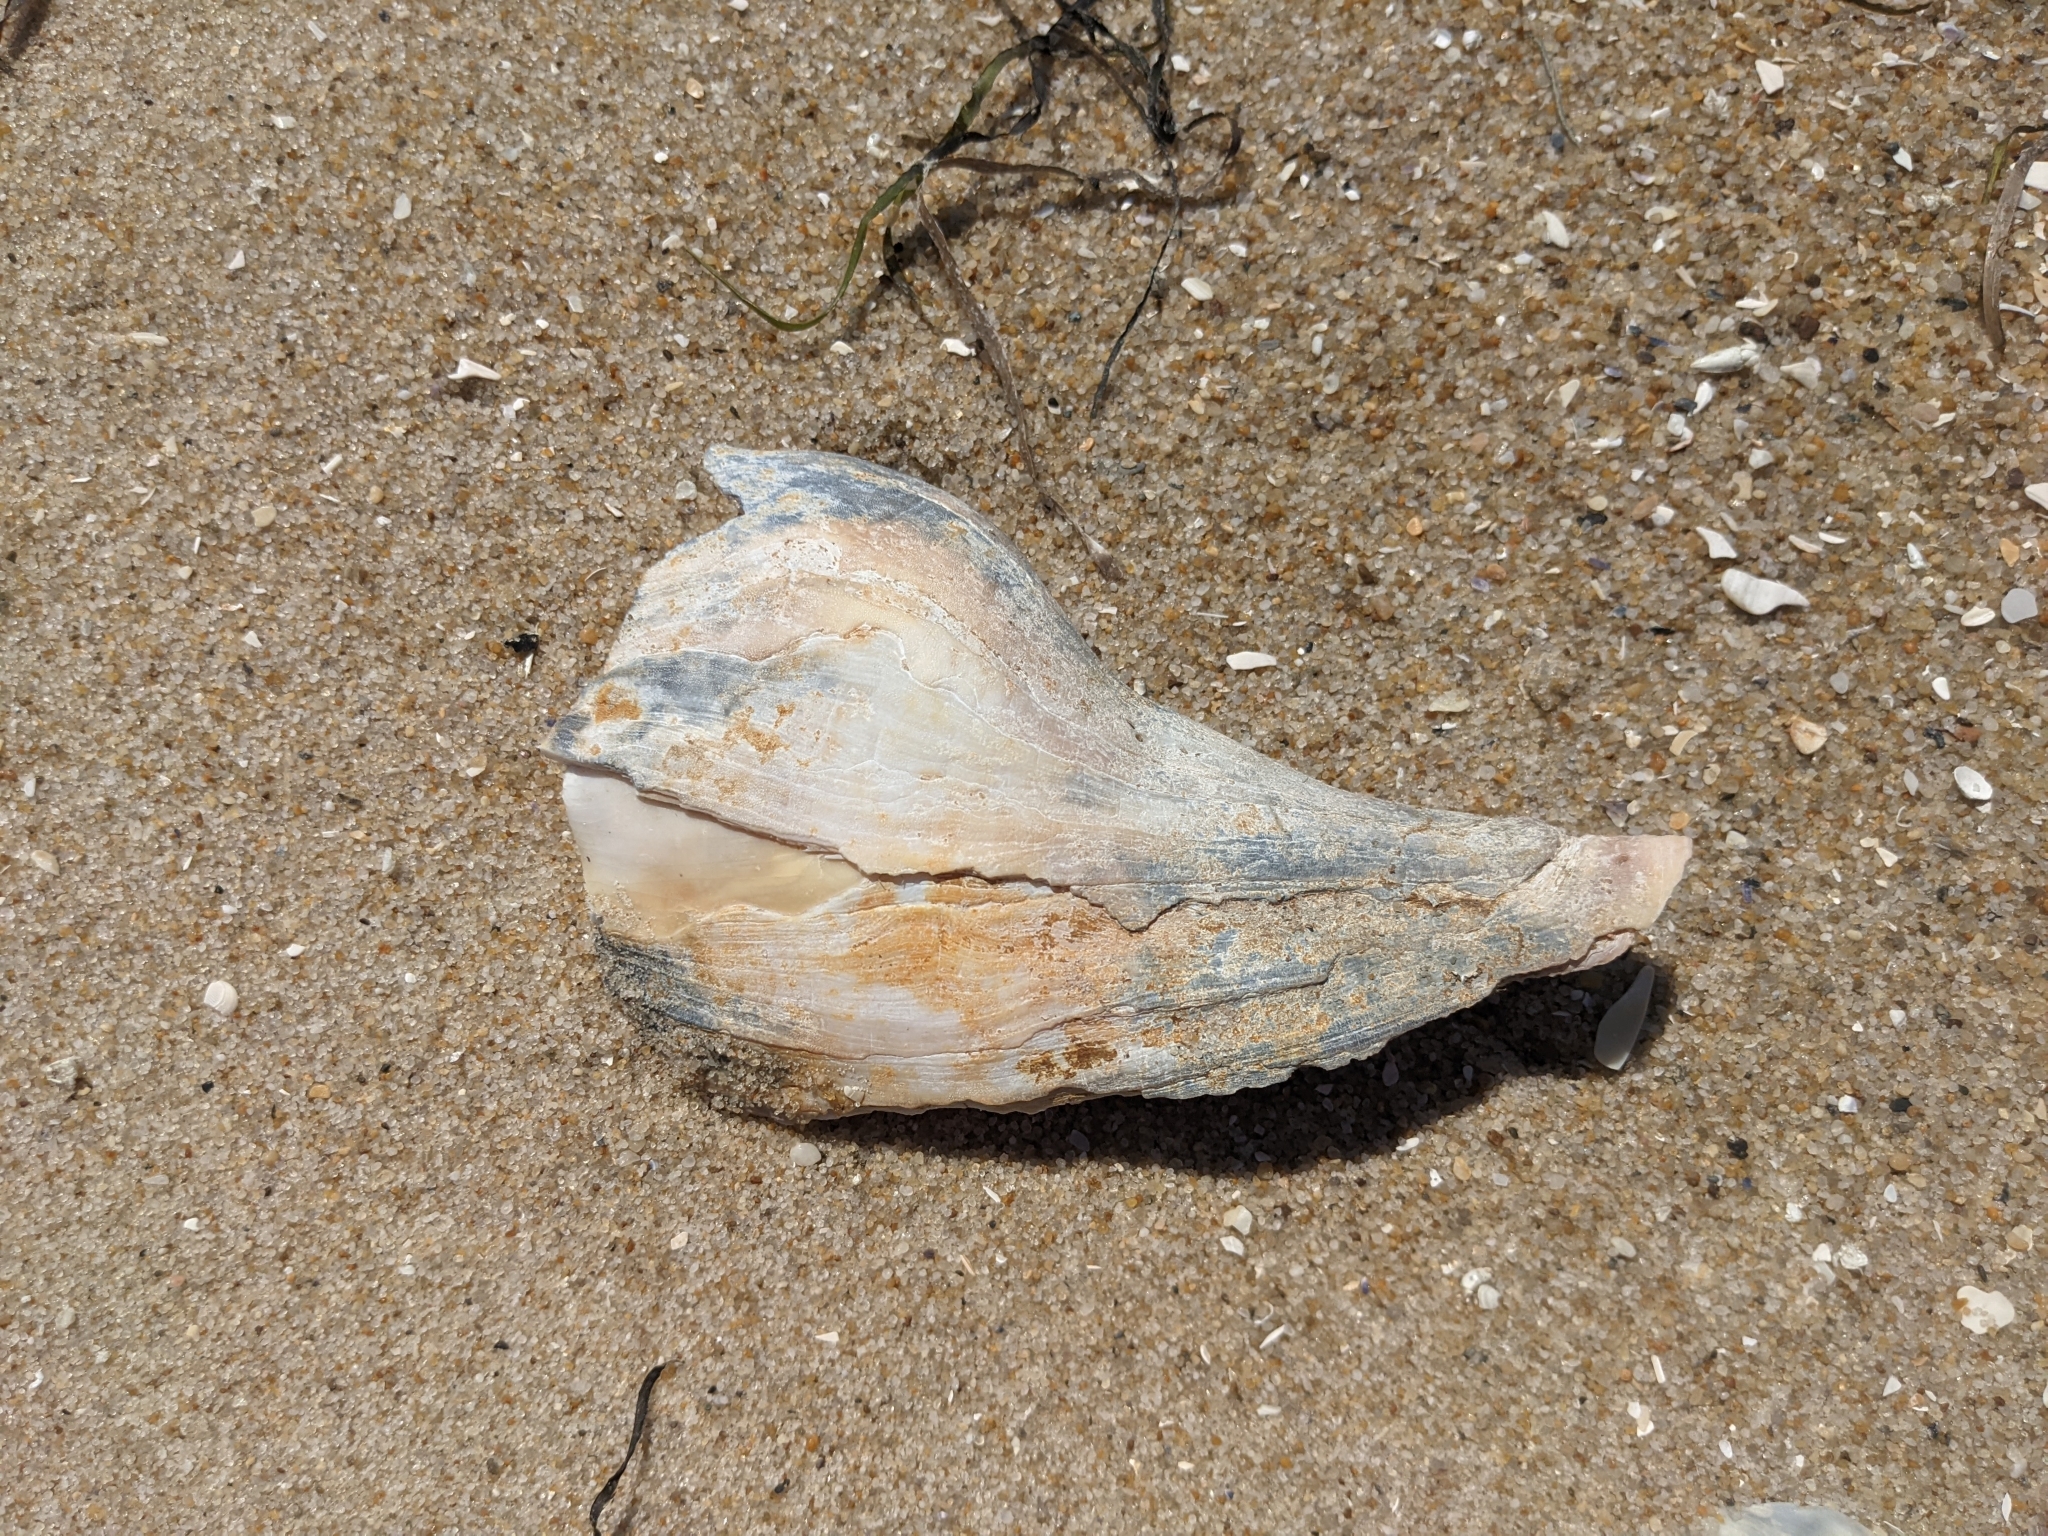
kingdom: Animalia
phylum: Mollusca
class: Gastropoda
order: Neogastropoda
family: Busyconidae
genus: Busycon
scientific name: Busycon carica
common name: Knobbed whelk
